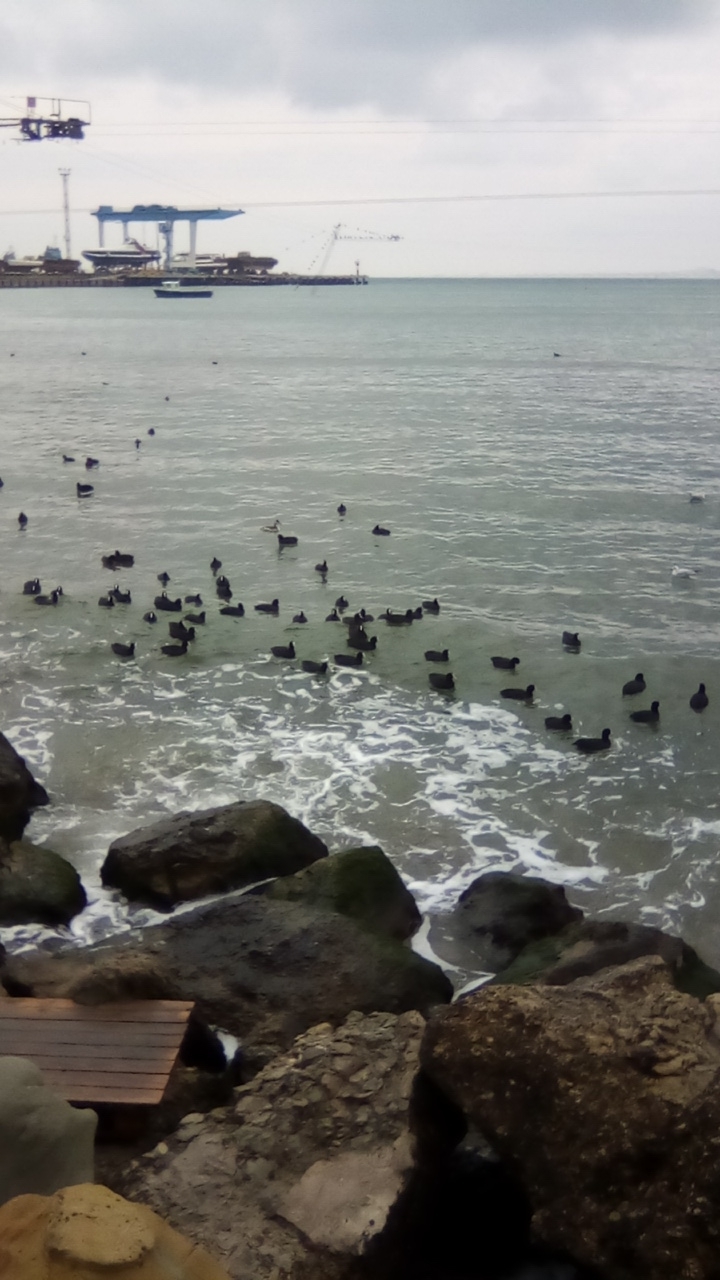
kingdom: Animalia
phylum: Chordata
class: Aves
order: Gruiformes
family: Rallidae
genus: Fulica
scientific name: Fulica atra
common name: Eurasian coot
